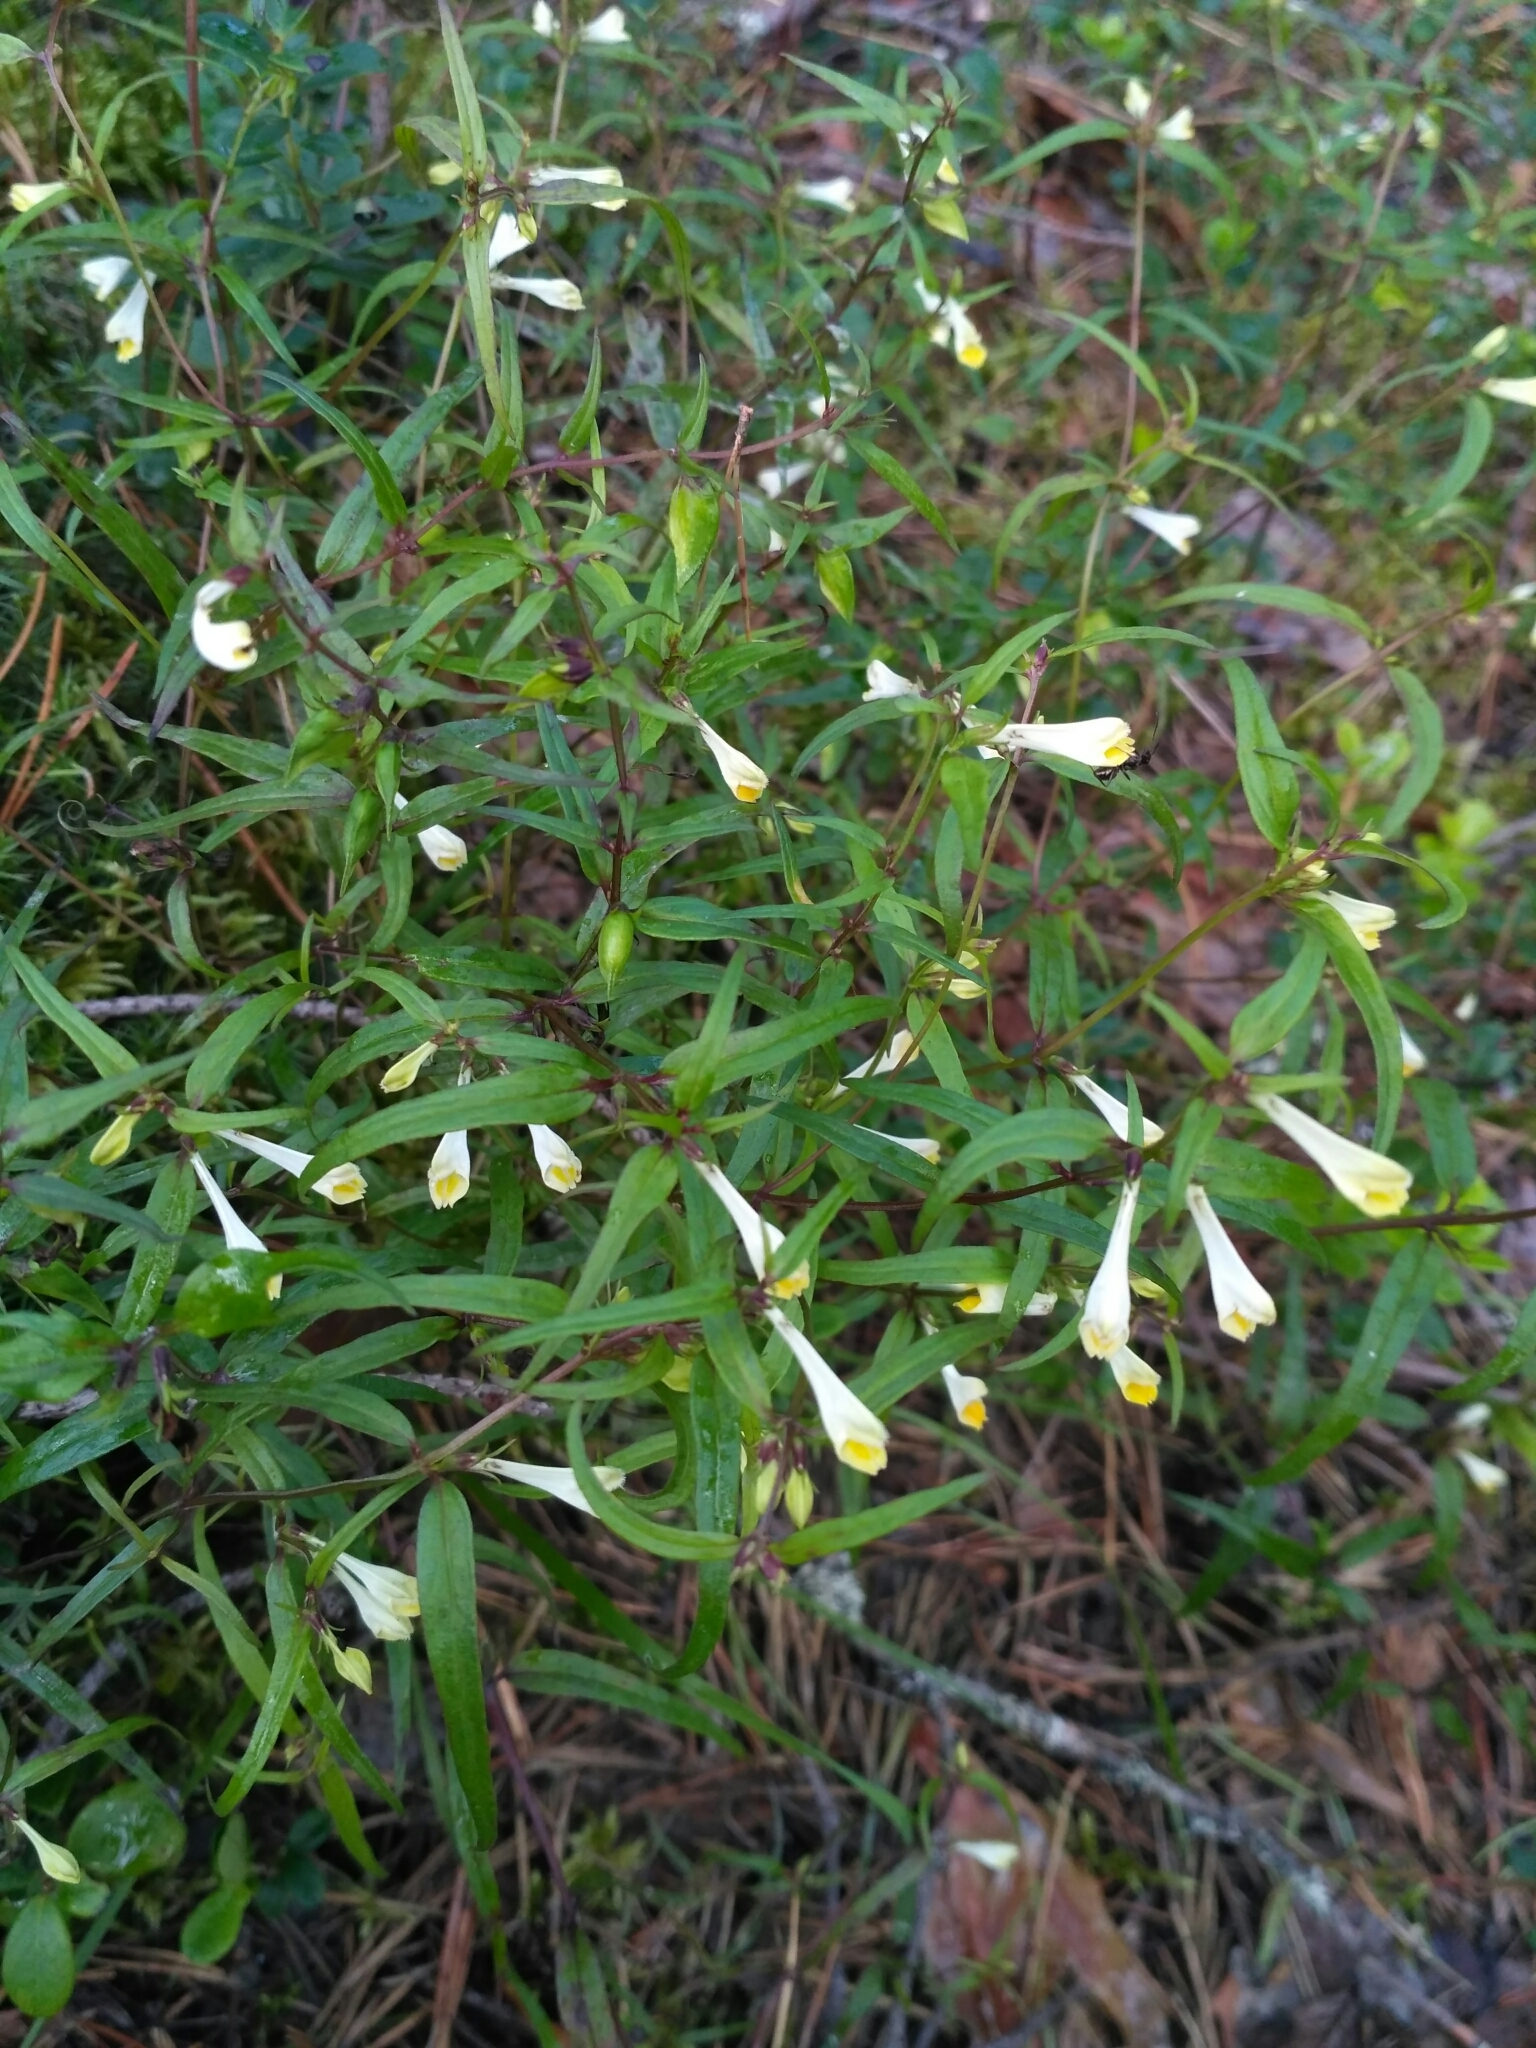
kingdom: Plantae
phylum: Tracheophyta
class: Magnoliopsida
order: Lamiales
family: Orobanchaceae
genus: Melampyrum
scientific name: Melampyrum pratense
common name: Common cow-wheat
